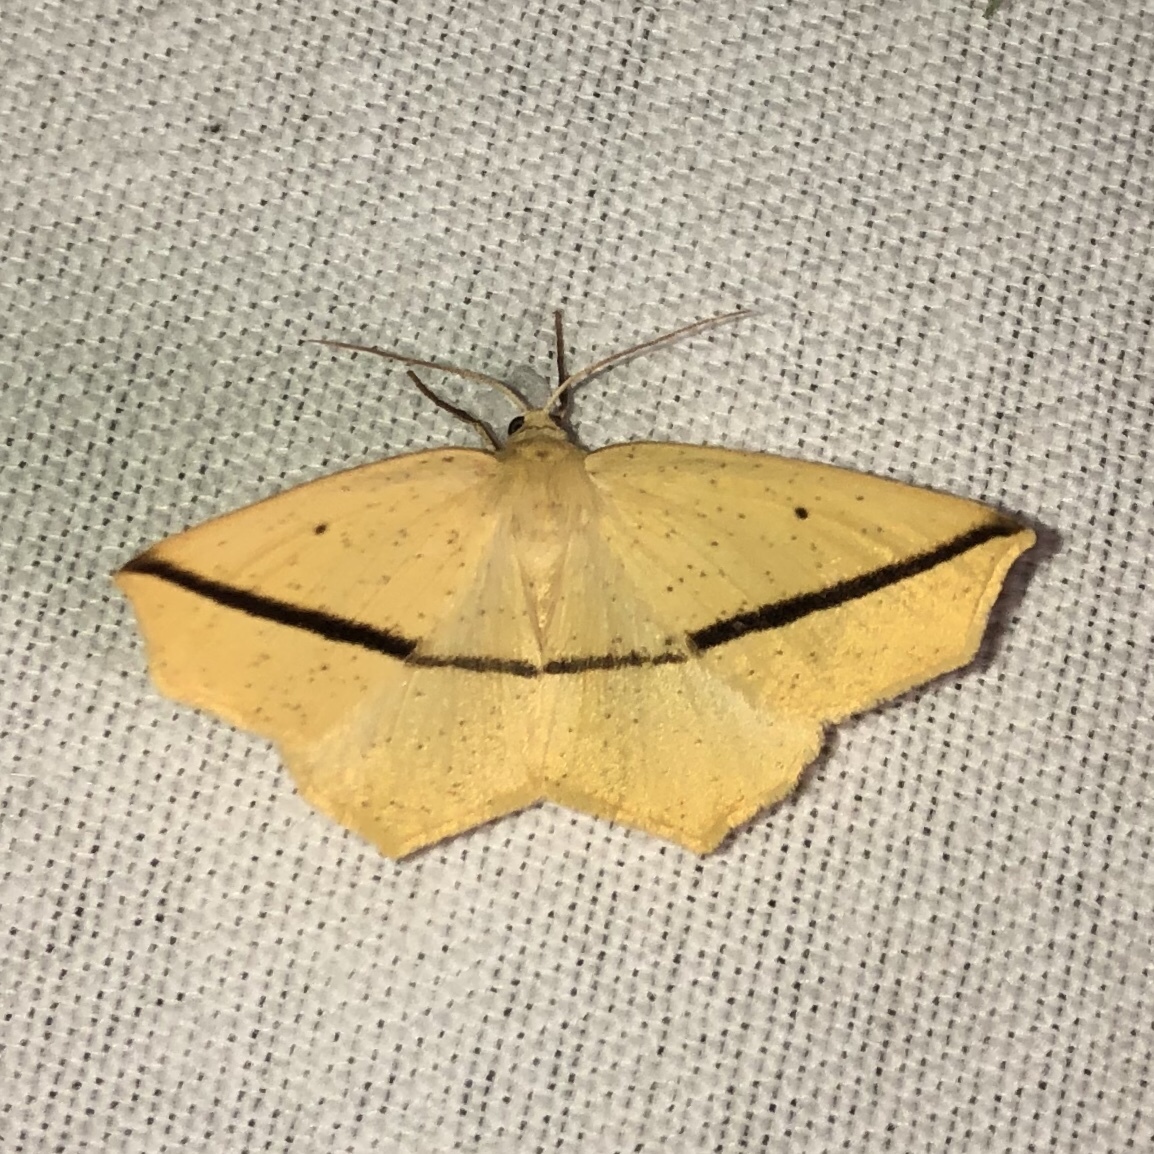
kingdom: Animalia
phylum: Arthropoda
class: Insecta
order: Lepidoptera
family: Geometridae
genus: Tetracis
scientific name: Tetracis crocallata
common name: Yellow slant-line
